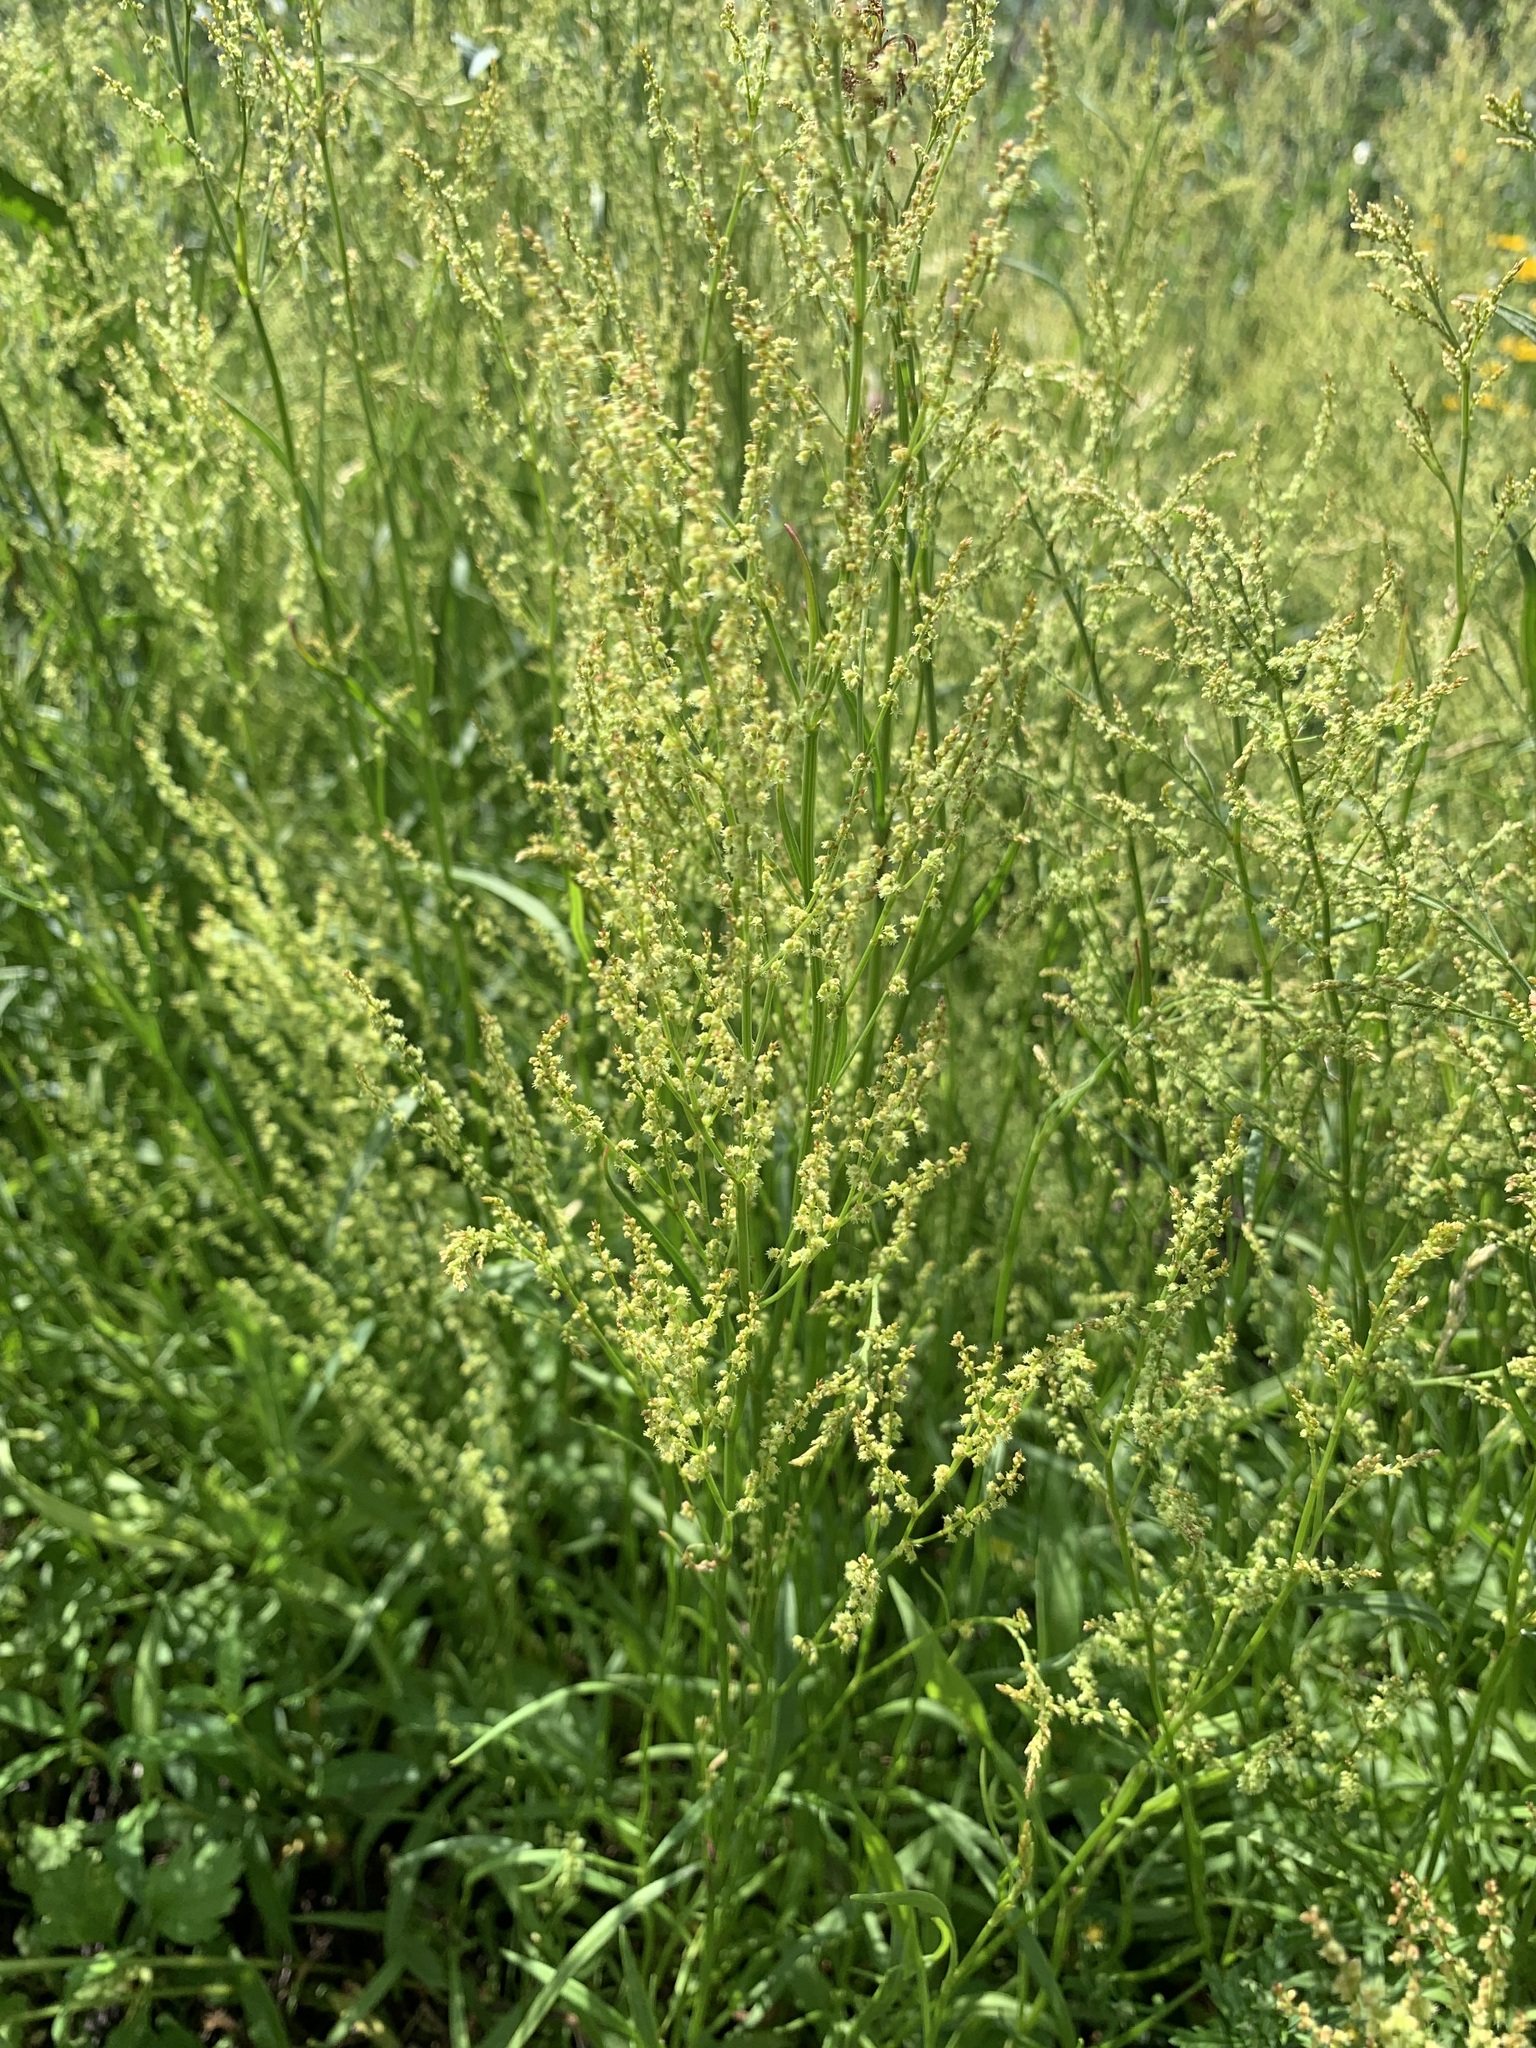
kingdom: Plantae
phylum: Tracheophyta
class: Magnoliopsida
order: Caryophyllales
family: Polygonaceae
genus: Rumex
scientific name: Rumex acetosella
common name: Common sheep sorrel
